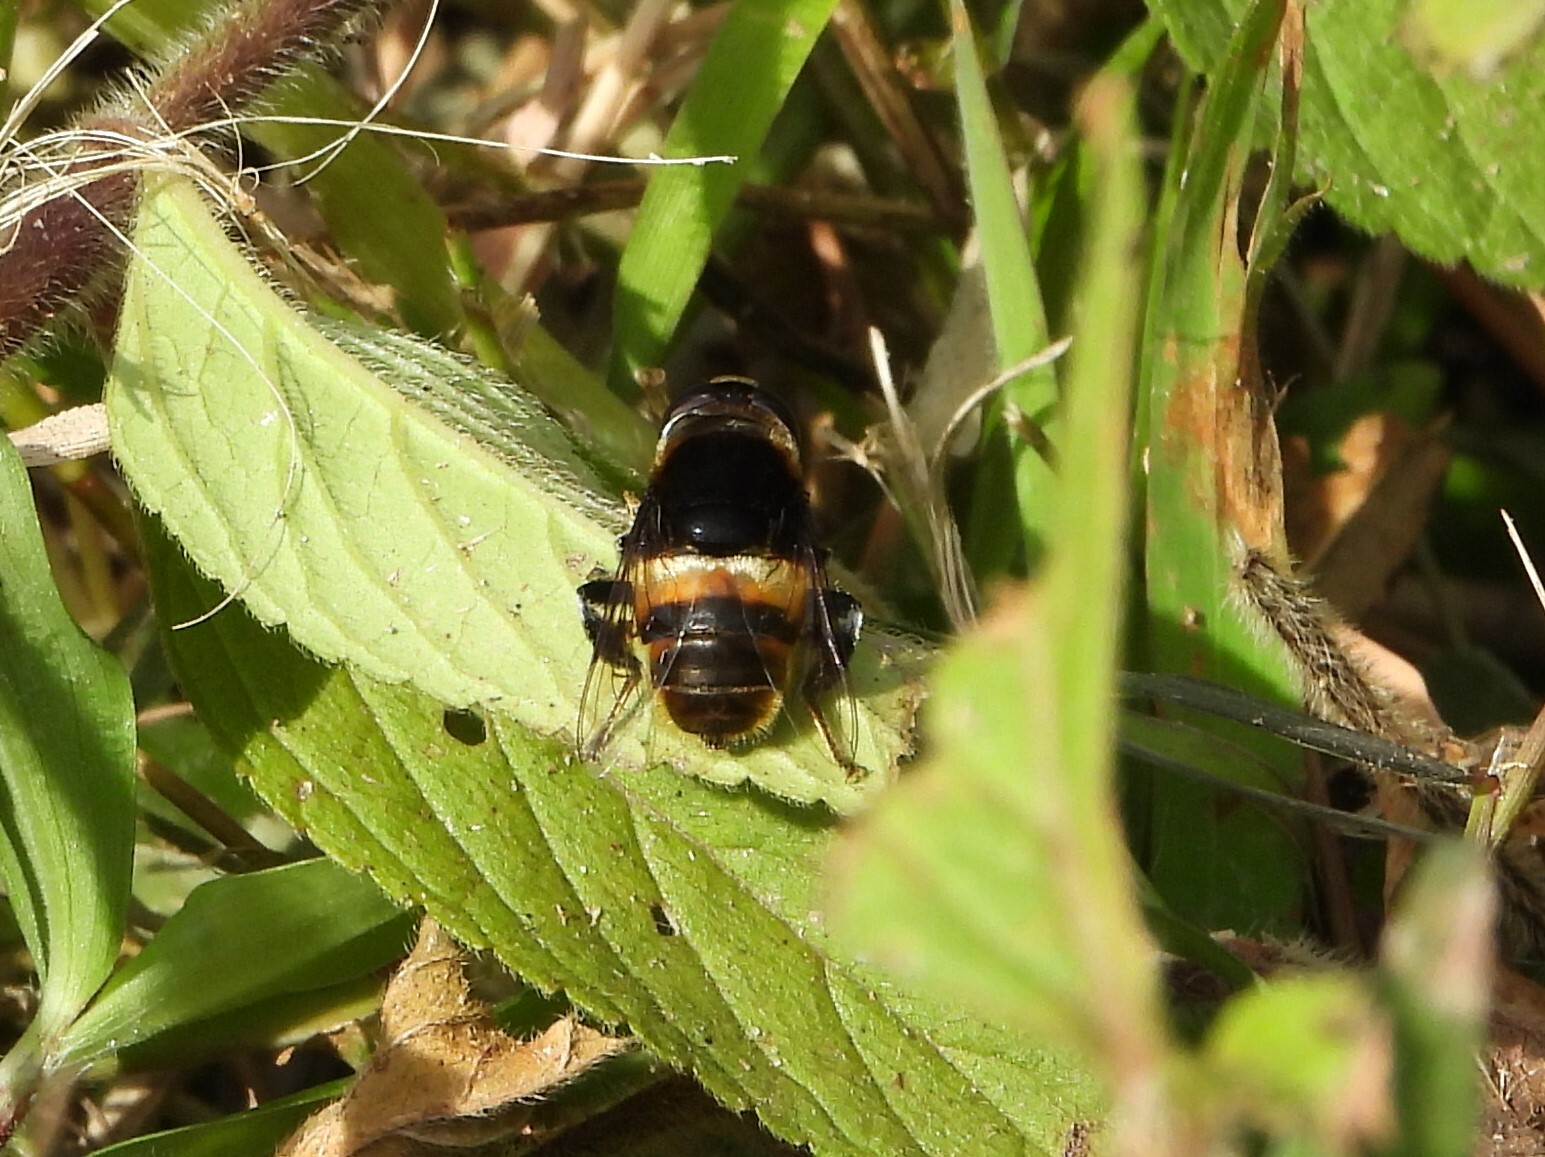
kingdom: Animalia
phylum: Arthropoda
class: Insecta
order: Diptera
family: Syrphidae
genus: Phytomia
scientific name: Phytomia zonata
